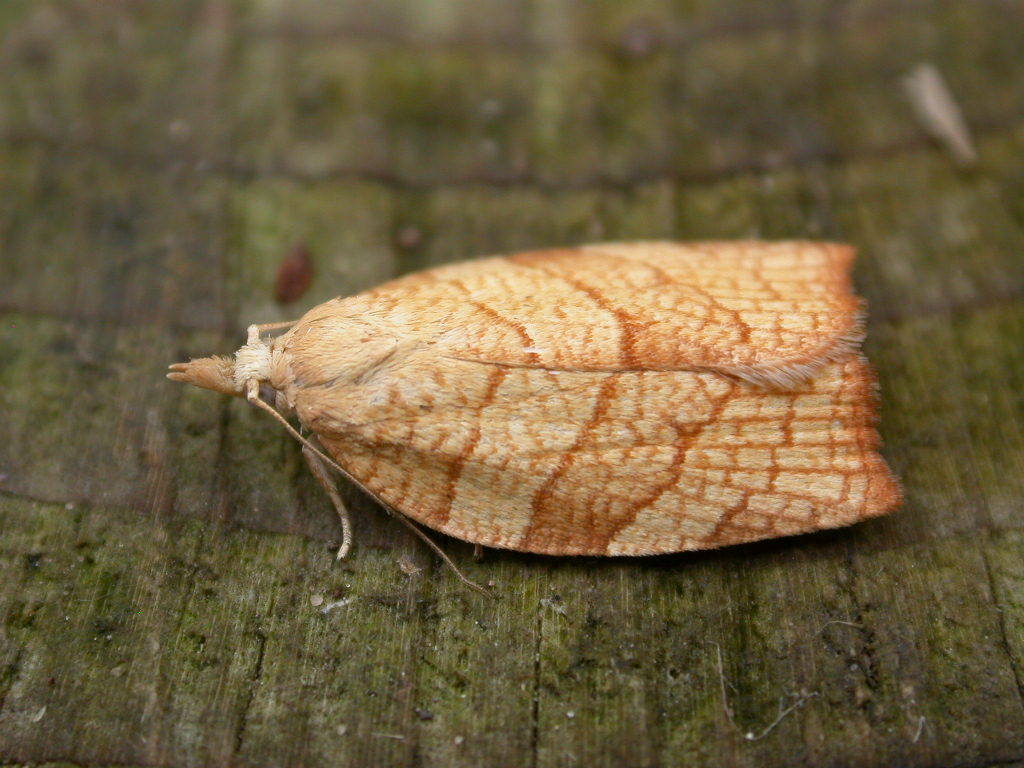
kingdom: Animalia
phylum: Arthropoda
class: Insecta
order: Lepidoptera
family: Tortricidae
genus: Pandemis
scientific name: Pandemis corylana
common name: Chequered fruit-tree tortrix
